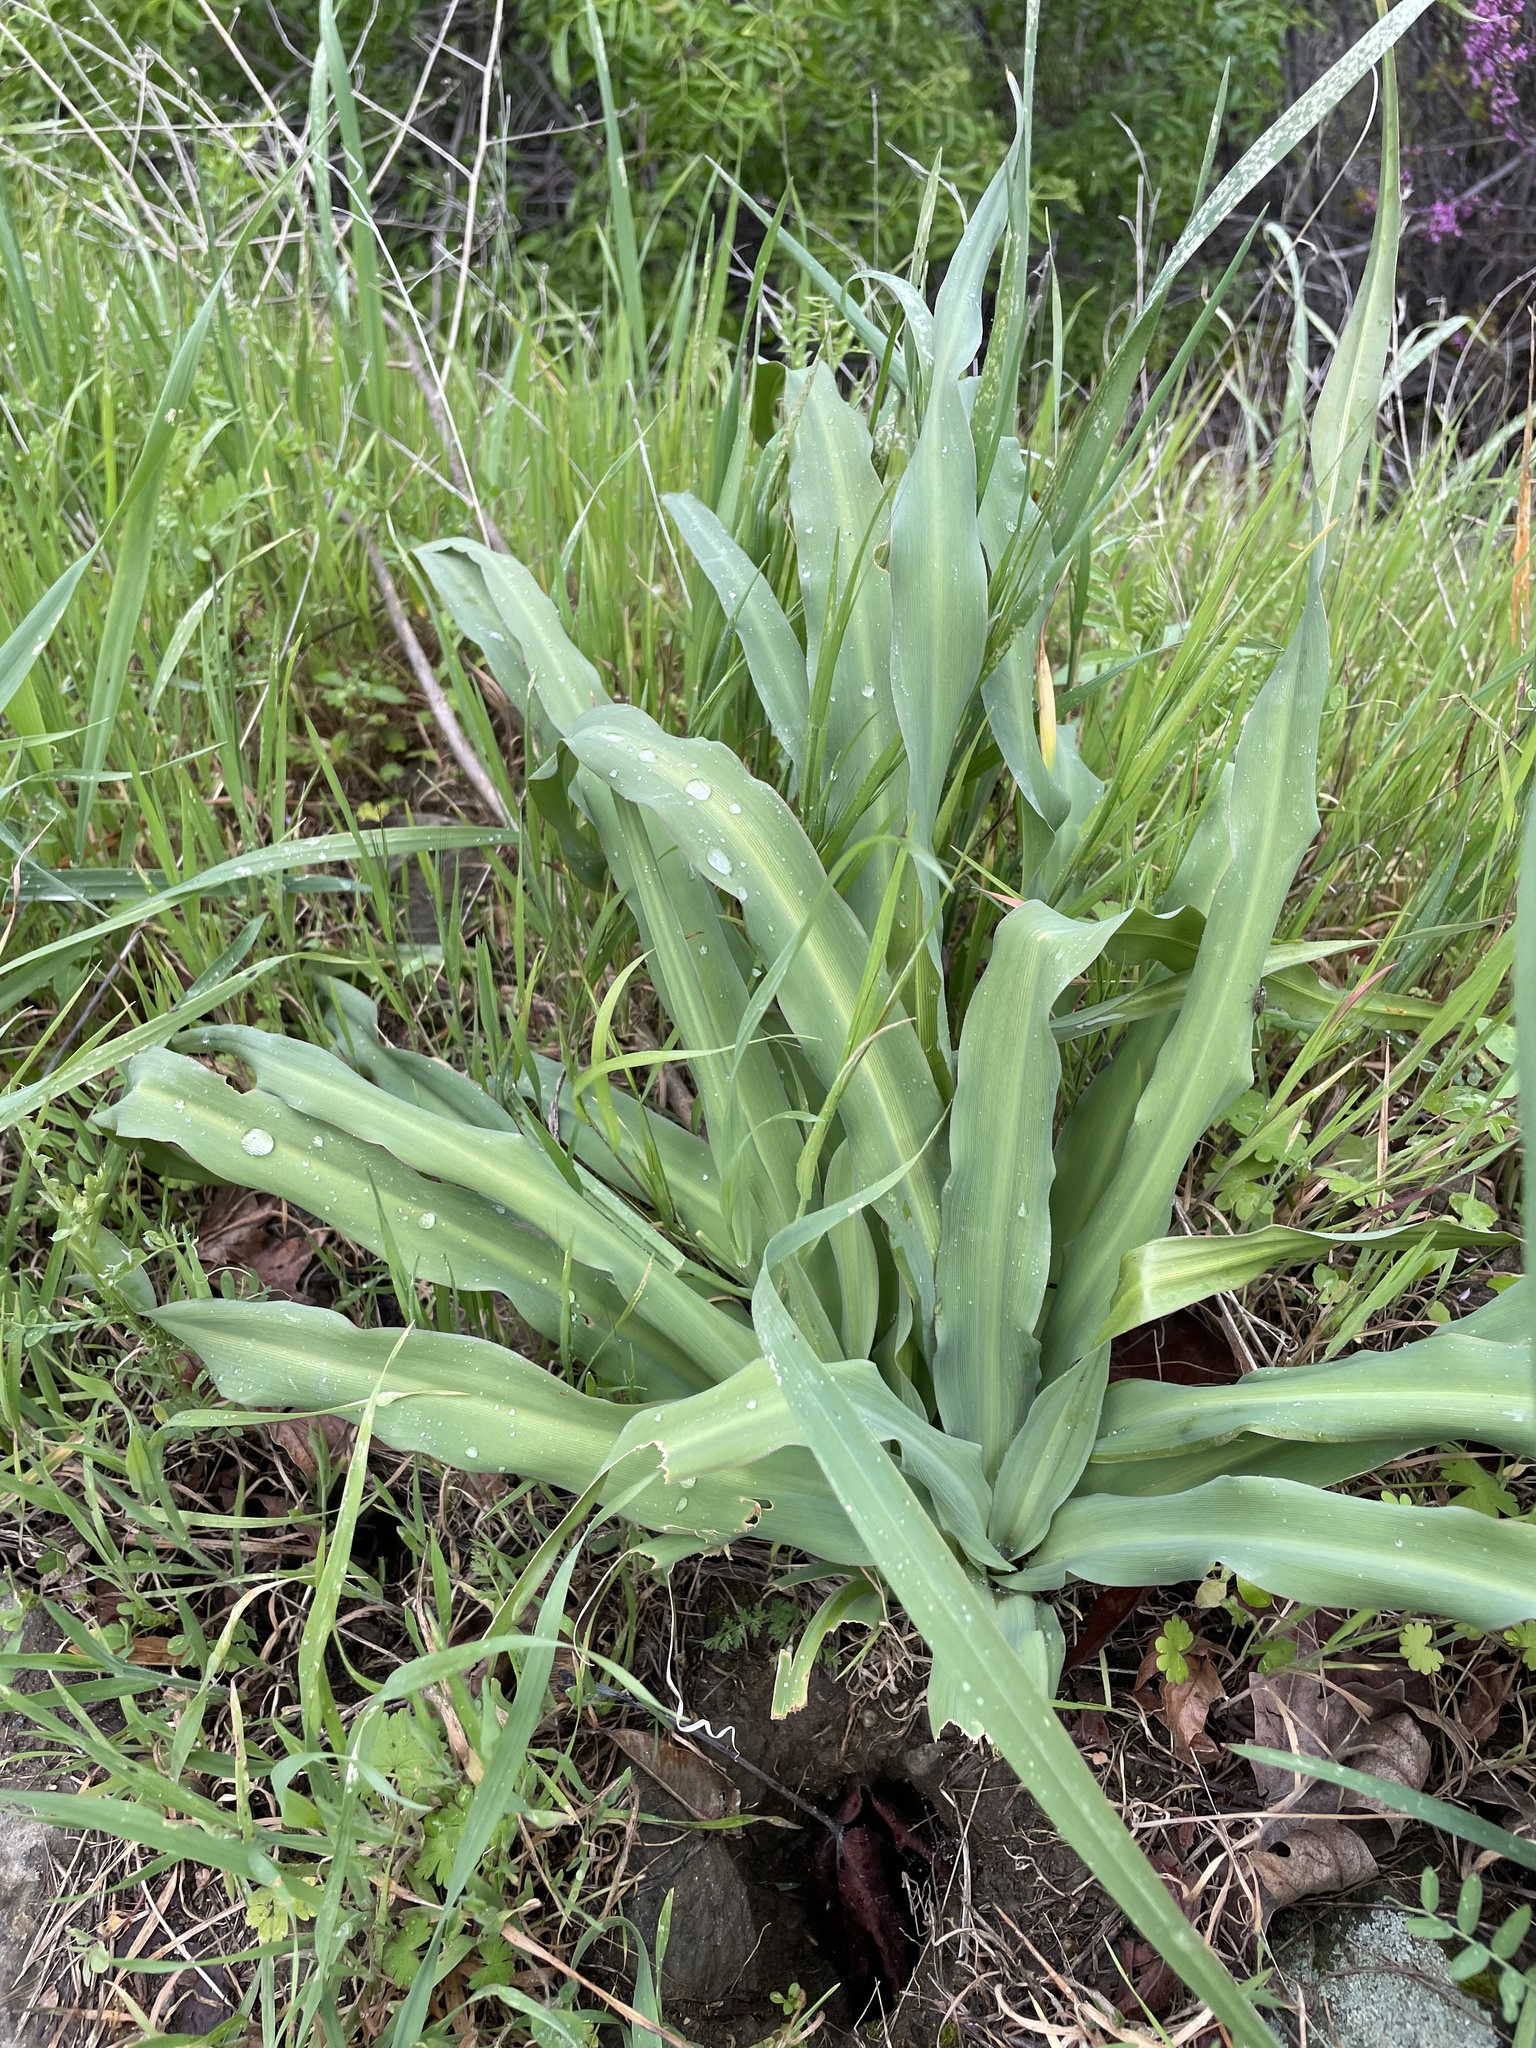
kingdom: Plantae
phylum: Tracheophyta
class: Liliopsida
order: Asparagales
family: Asparagaceae
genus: Chlorogalum
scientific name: Chlorogalum pomeridianum
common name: Amole
